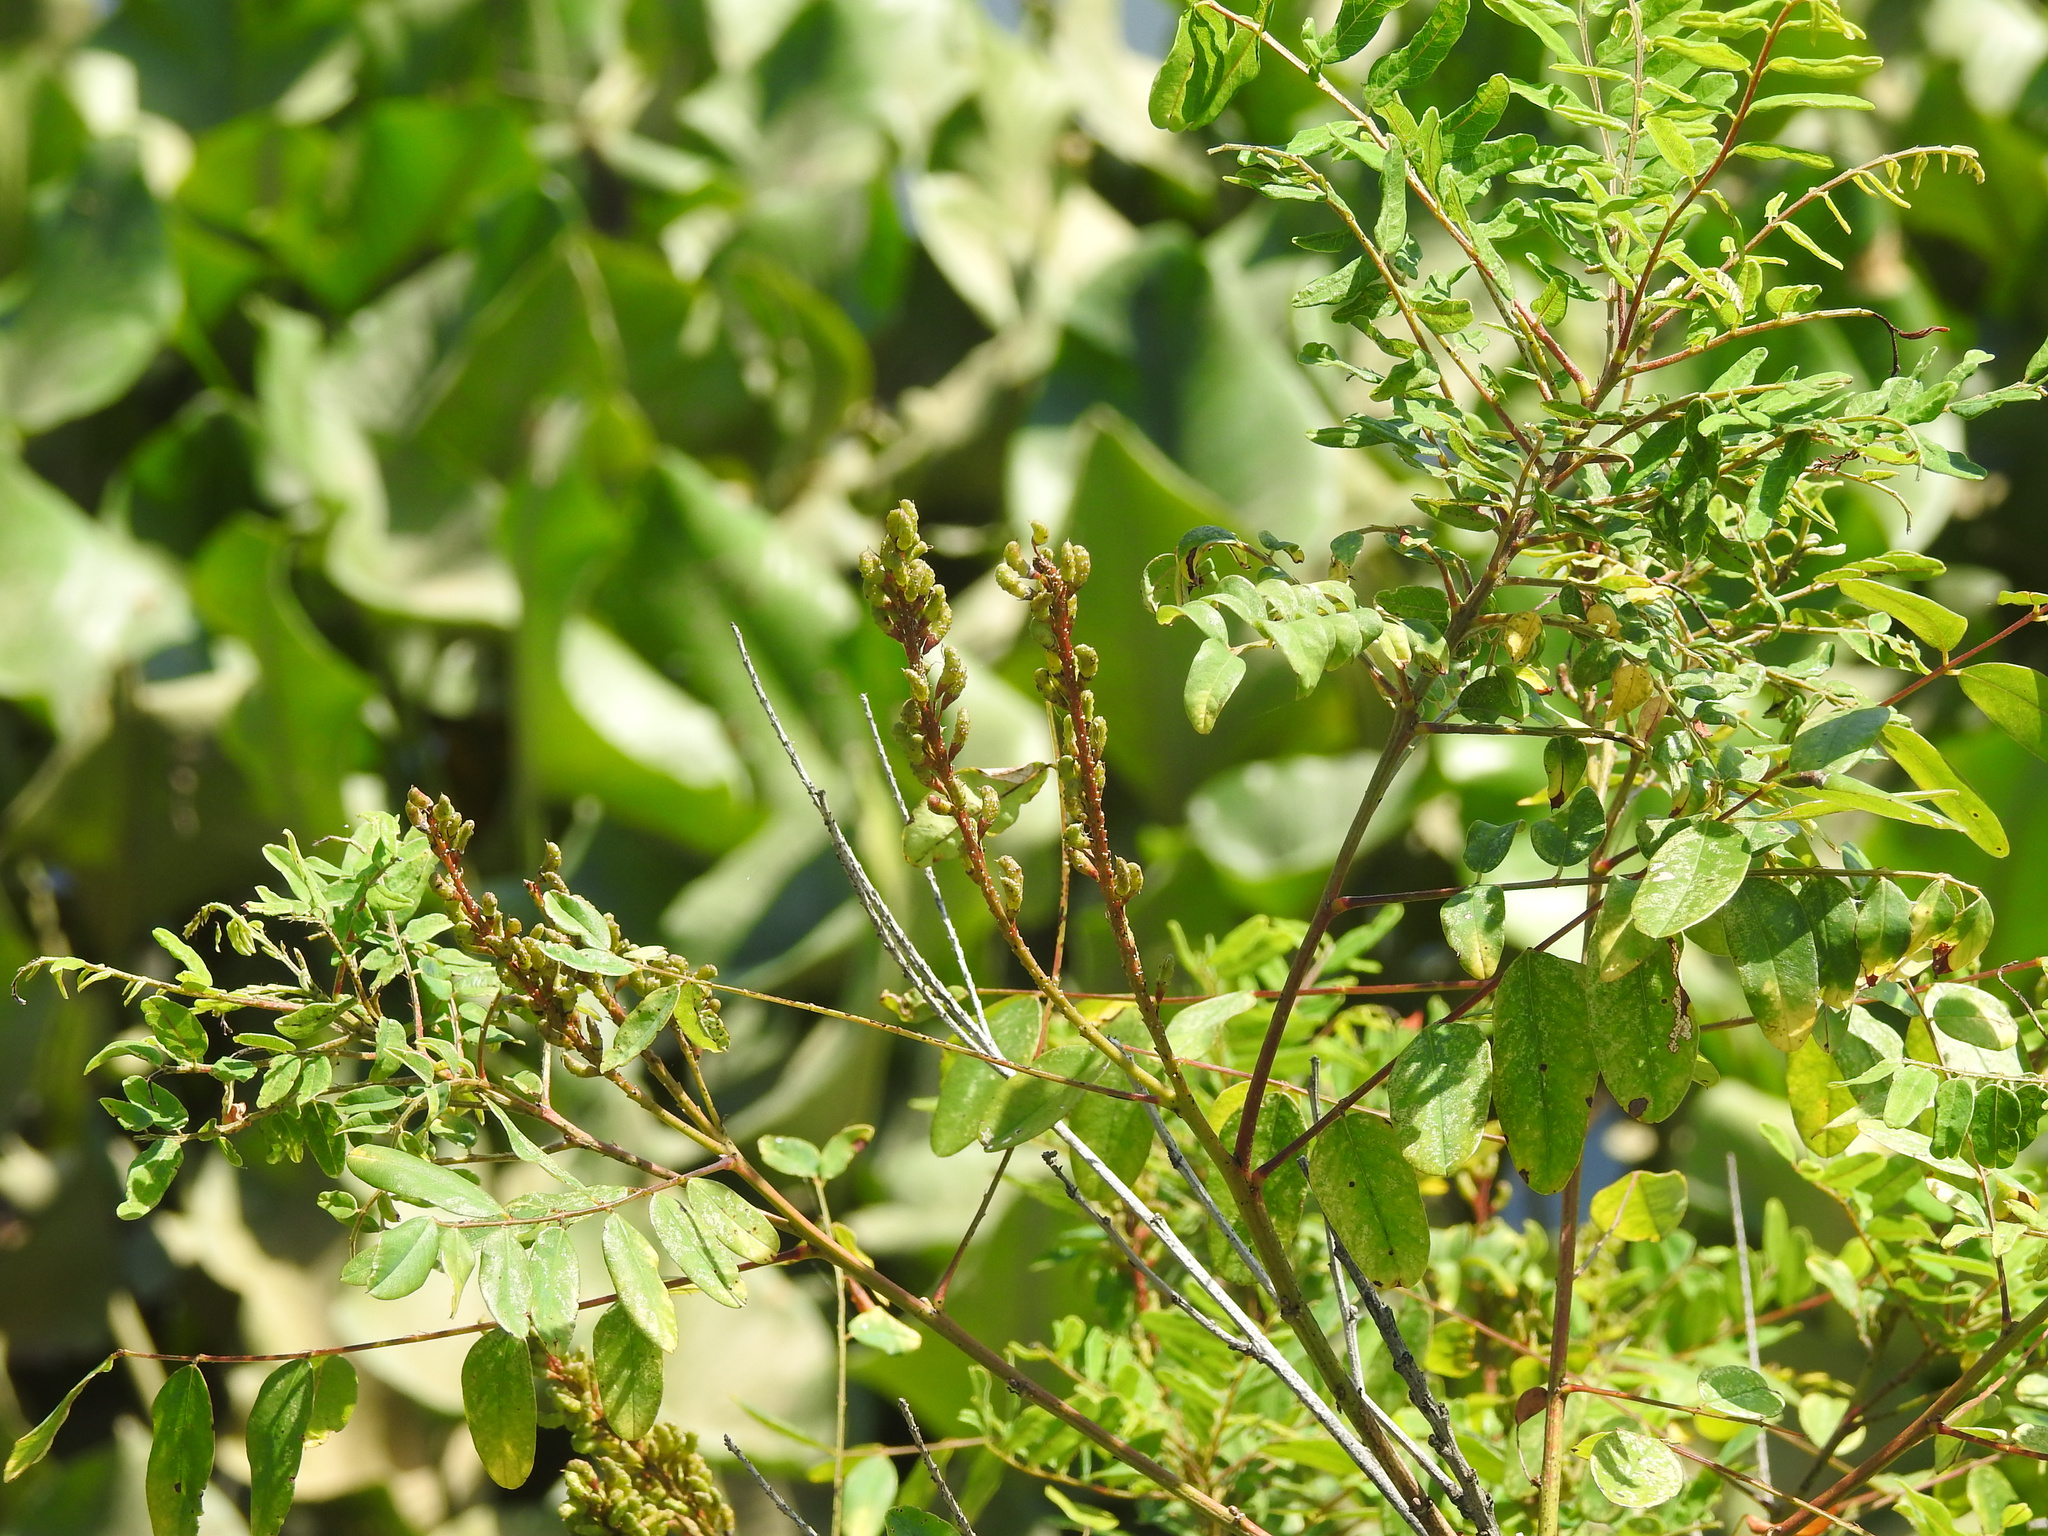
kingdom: Plantae
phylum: Tracheophyta
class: Magnoliopsida
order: Fabales
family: Fabaceae
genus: Amorpha
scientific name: Amorpha fruticosa
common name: False indigo
